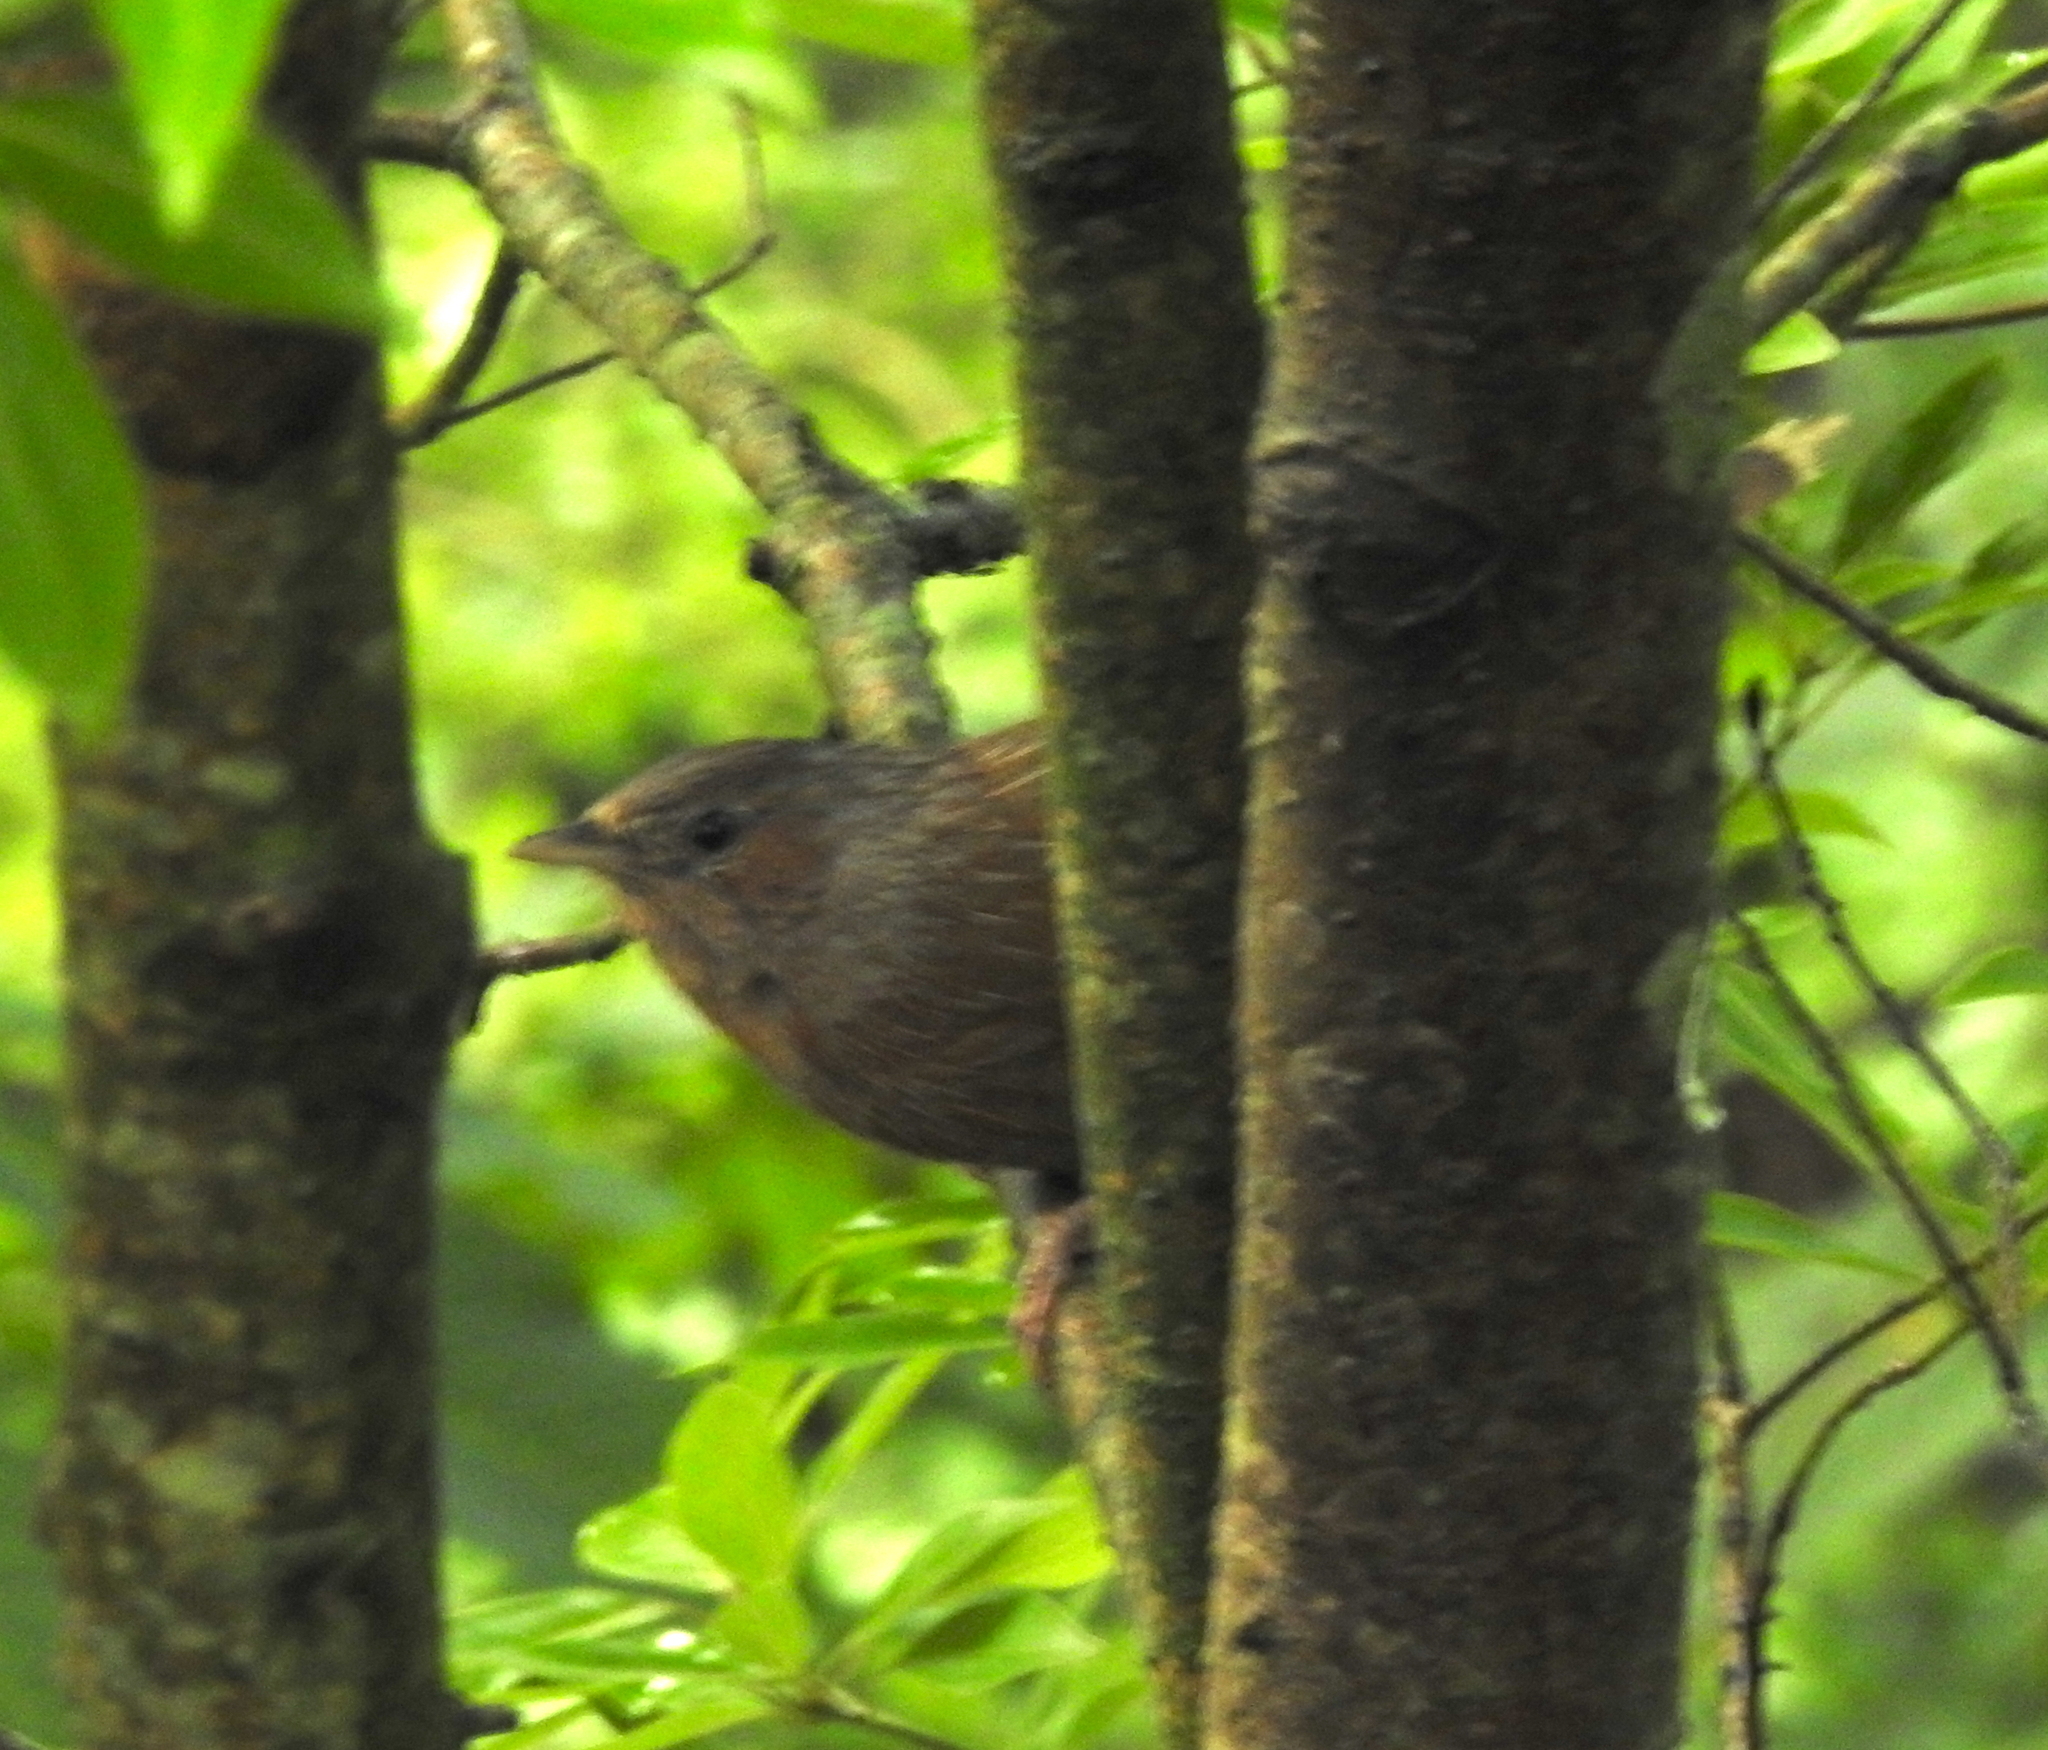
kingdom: Animalia
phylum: Chordata
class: Aves
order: Passeriformes
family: Leiothrichidae
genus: Trochalopteron
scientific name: Trochalopteron lineatum
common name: Streaked laughingthrush
